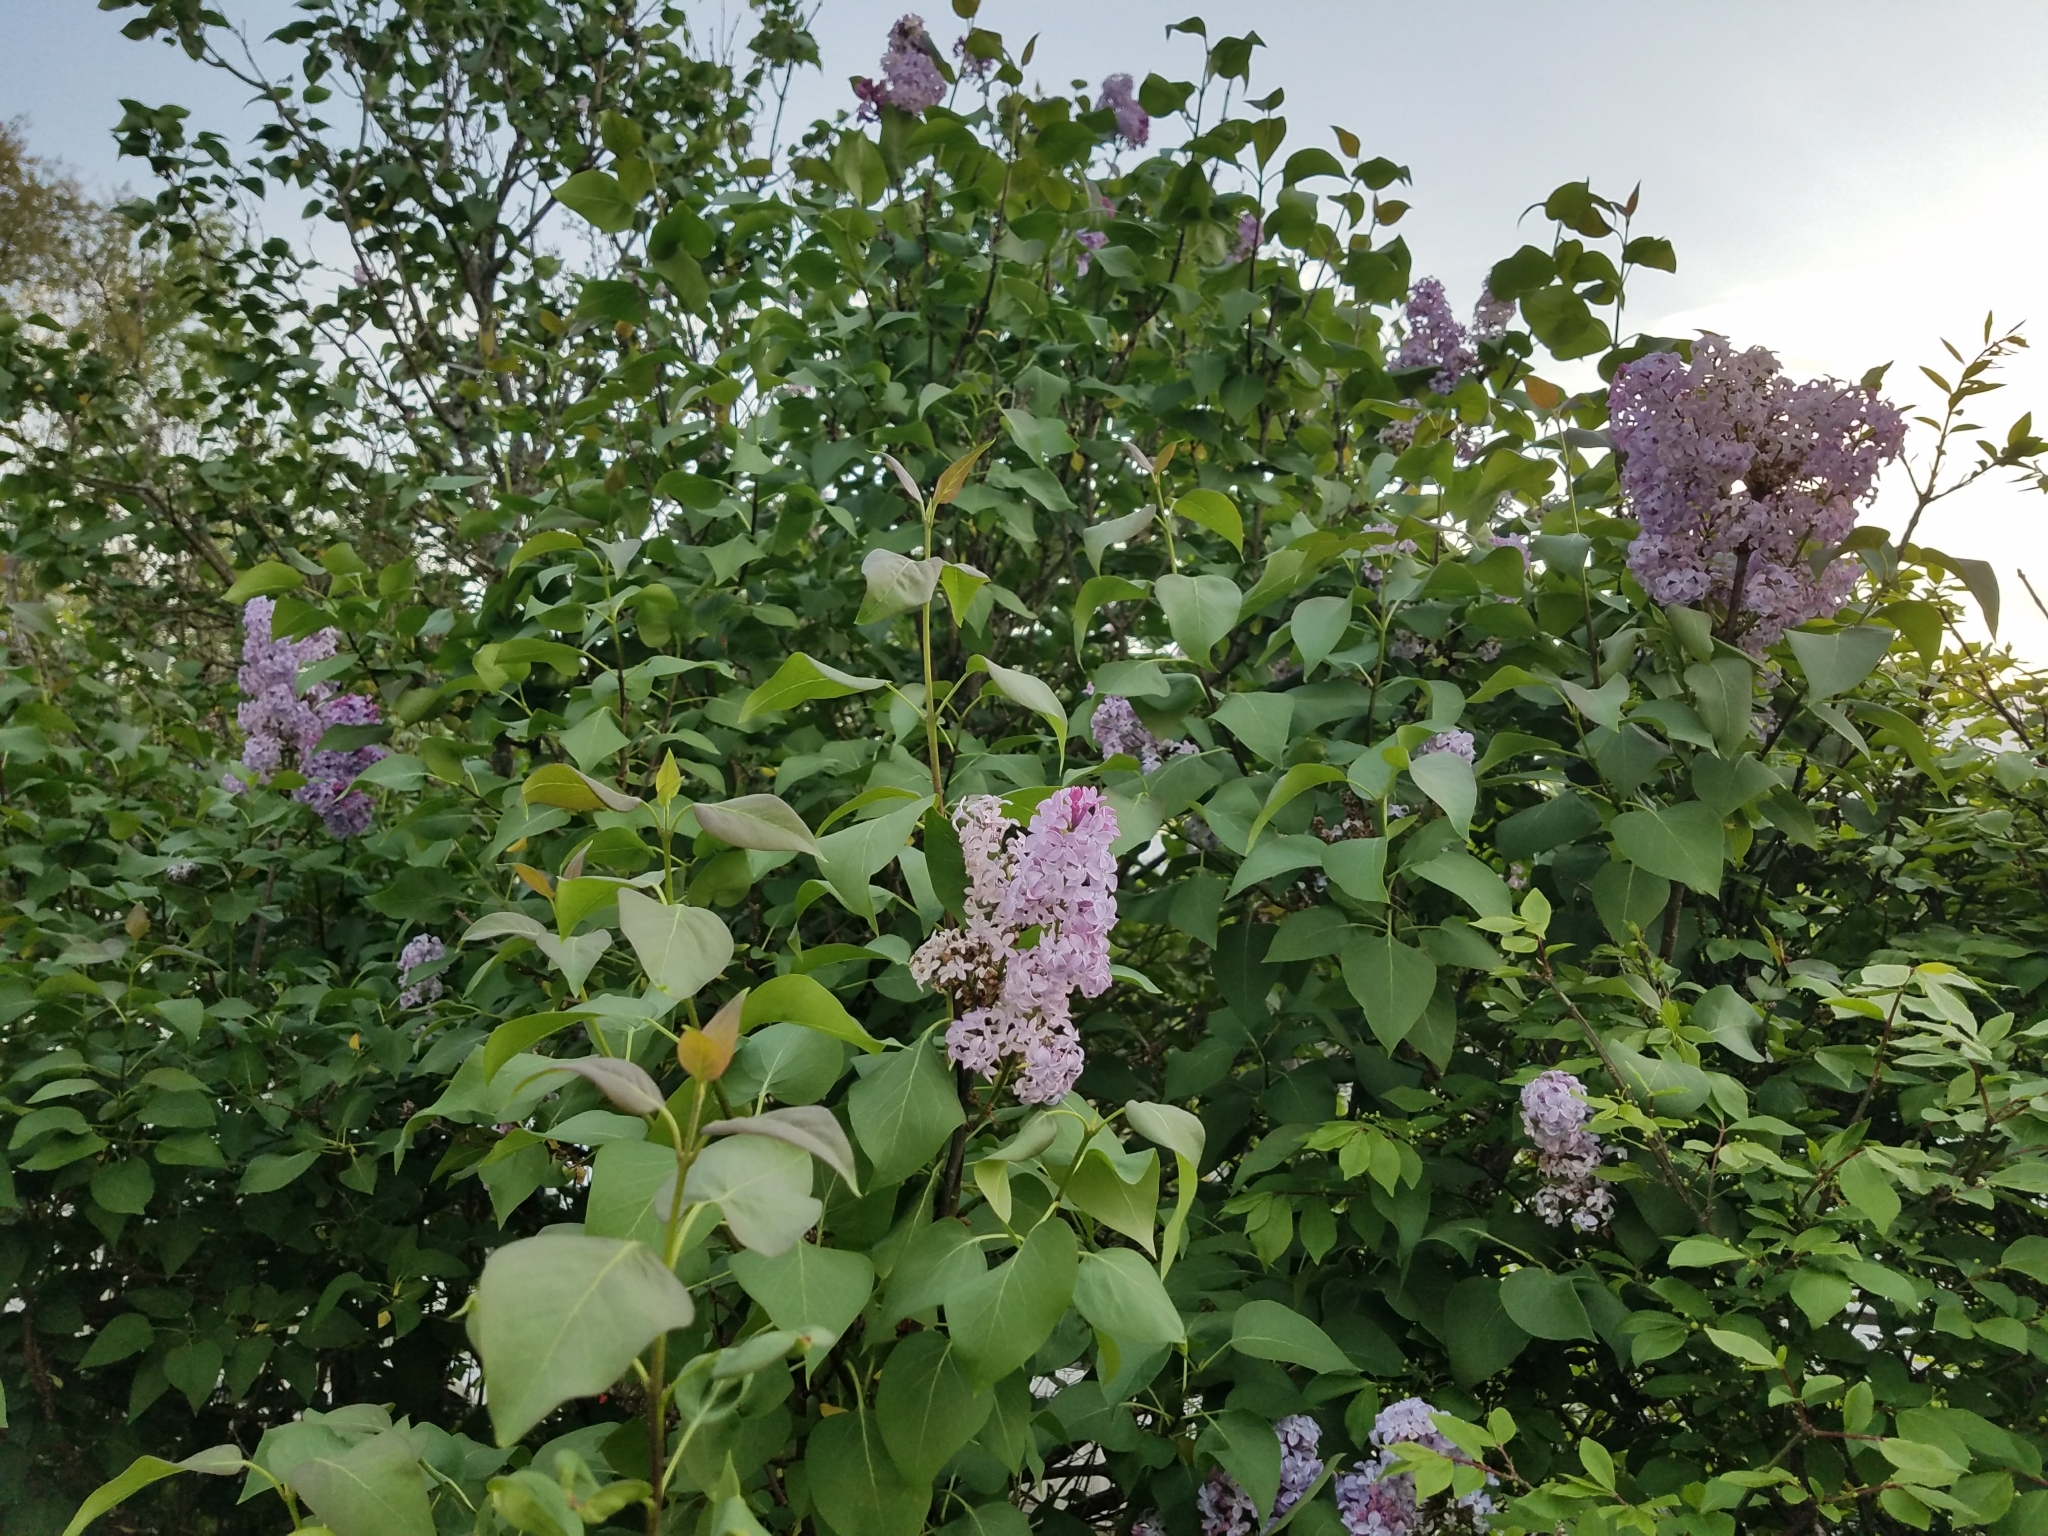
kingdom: Plantae
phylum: Tracheophyta
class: Magnoliopsida
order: Lamiales
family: Oleaceae
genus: Syringa
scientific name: Syringa vulgaris
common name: Common lilac
